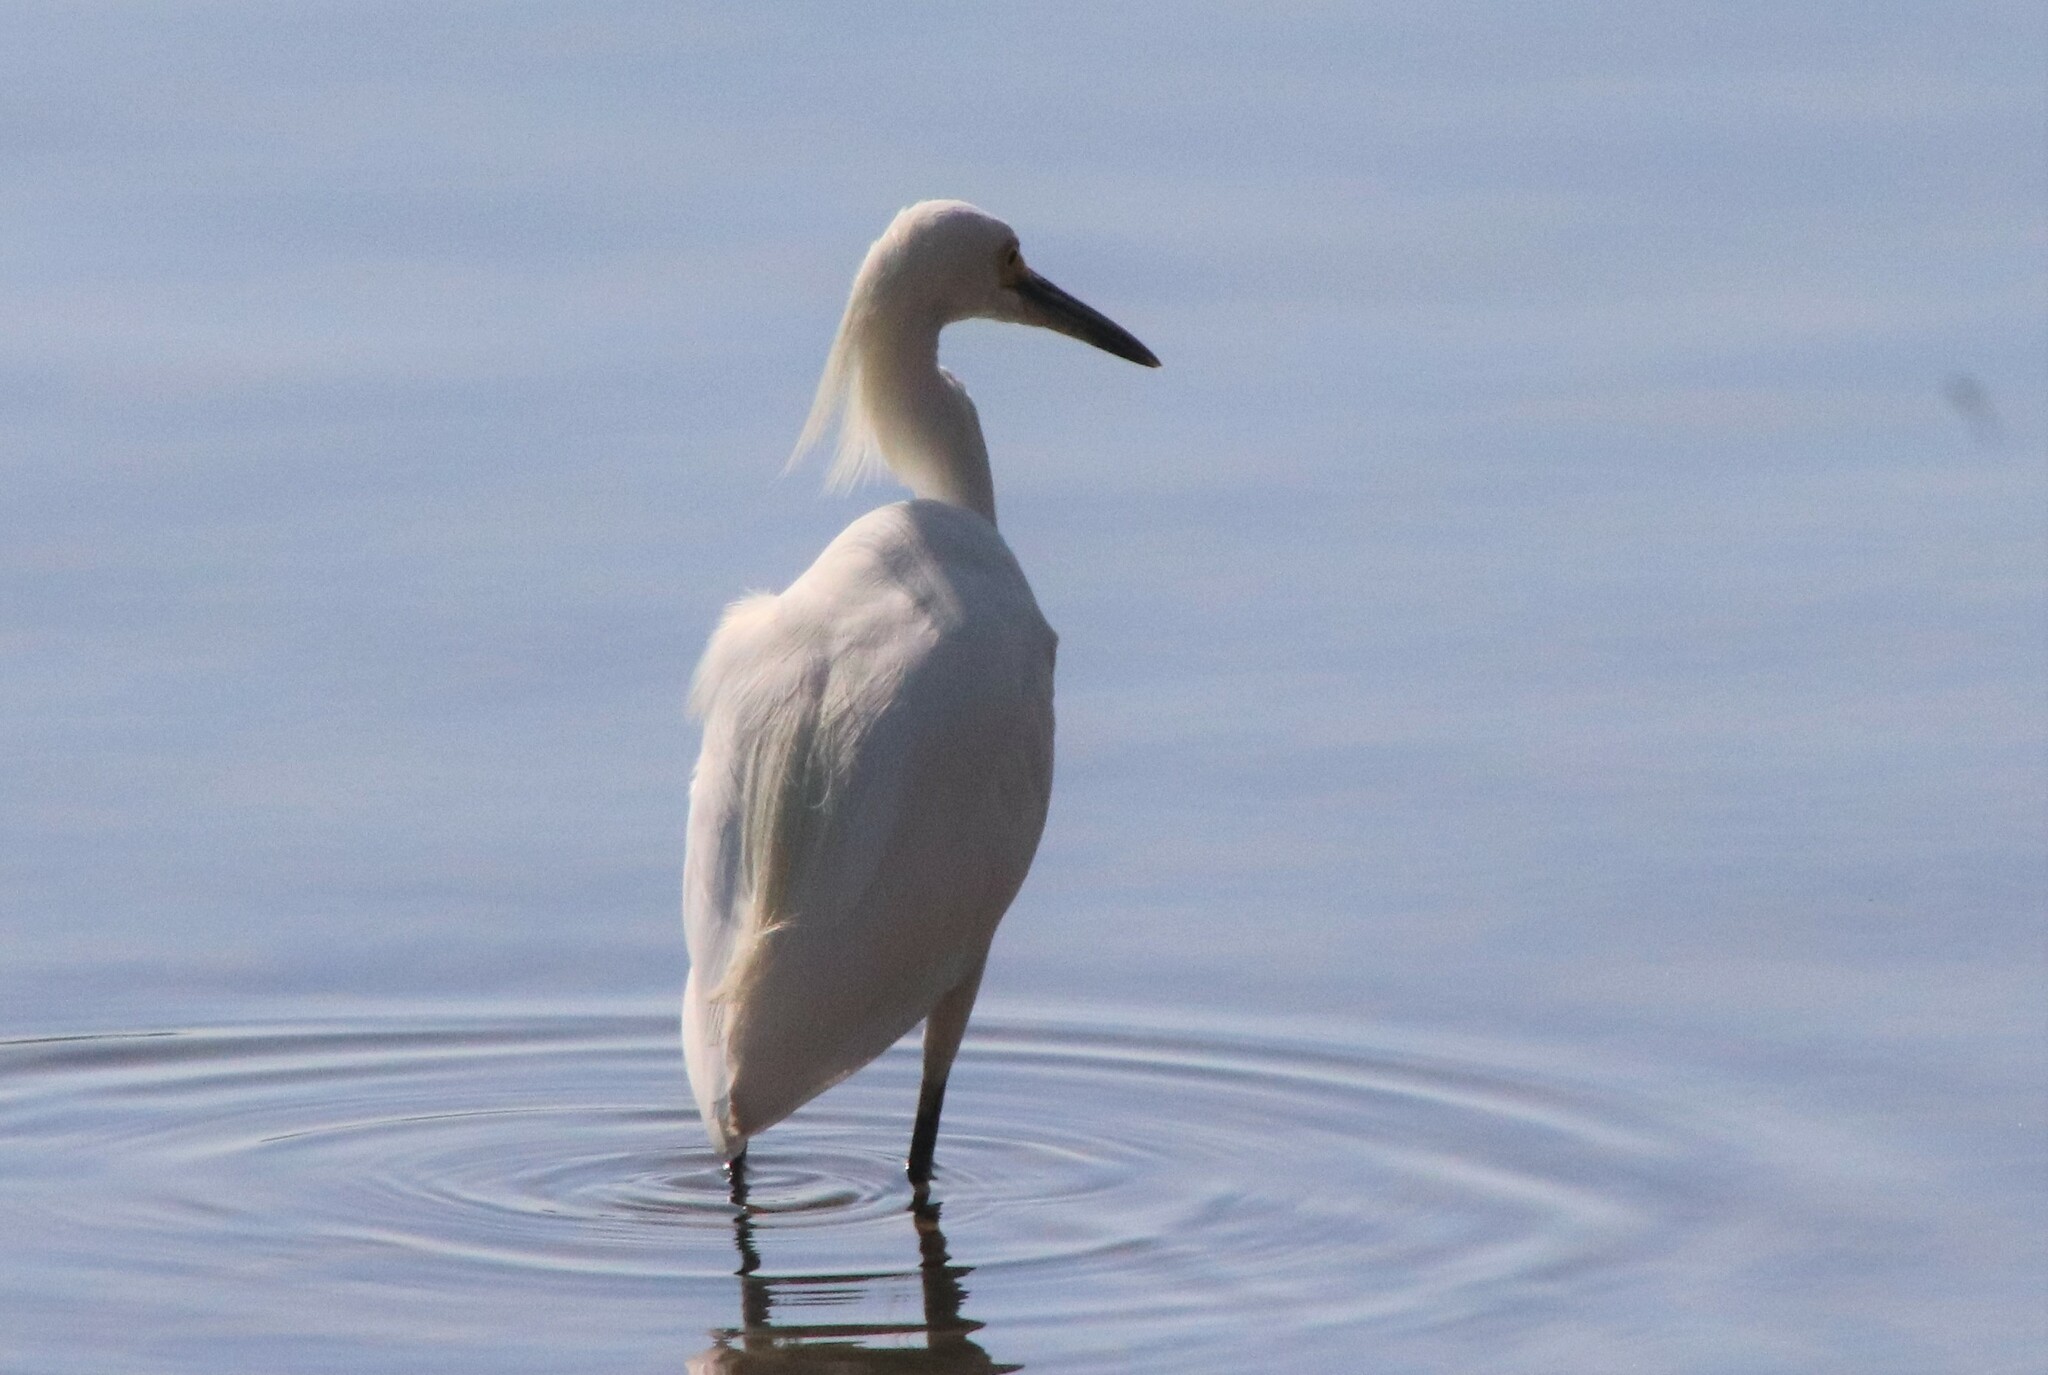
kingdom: Animalia
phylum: Chordata
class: Aves
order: Pelecaniformes
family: Ardeidae
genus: Egretta
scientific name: Egretta thula
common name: Snowy egret
